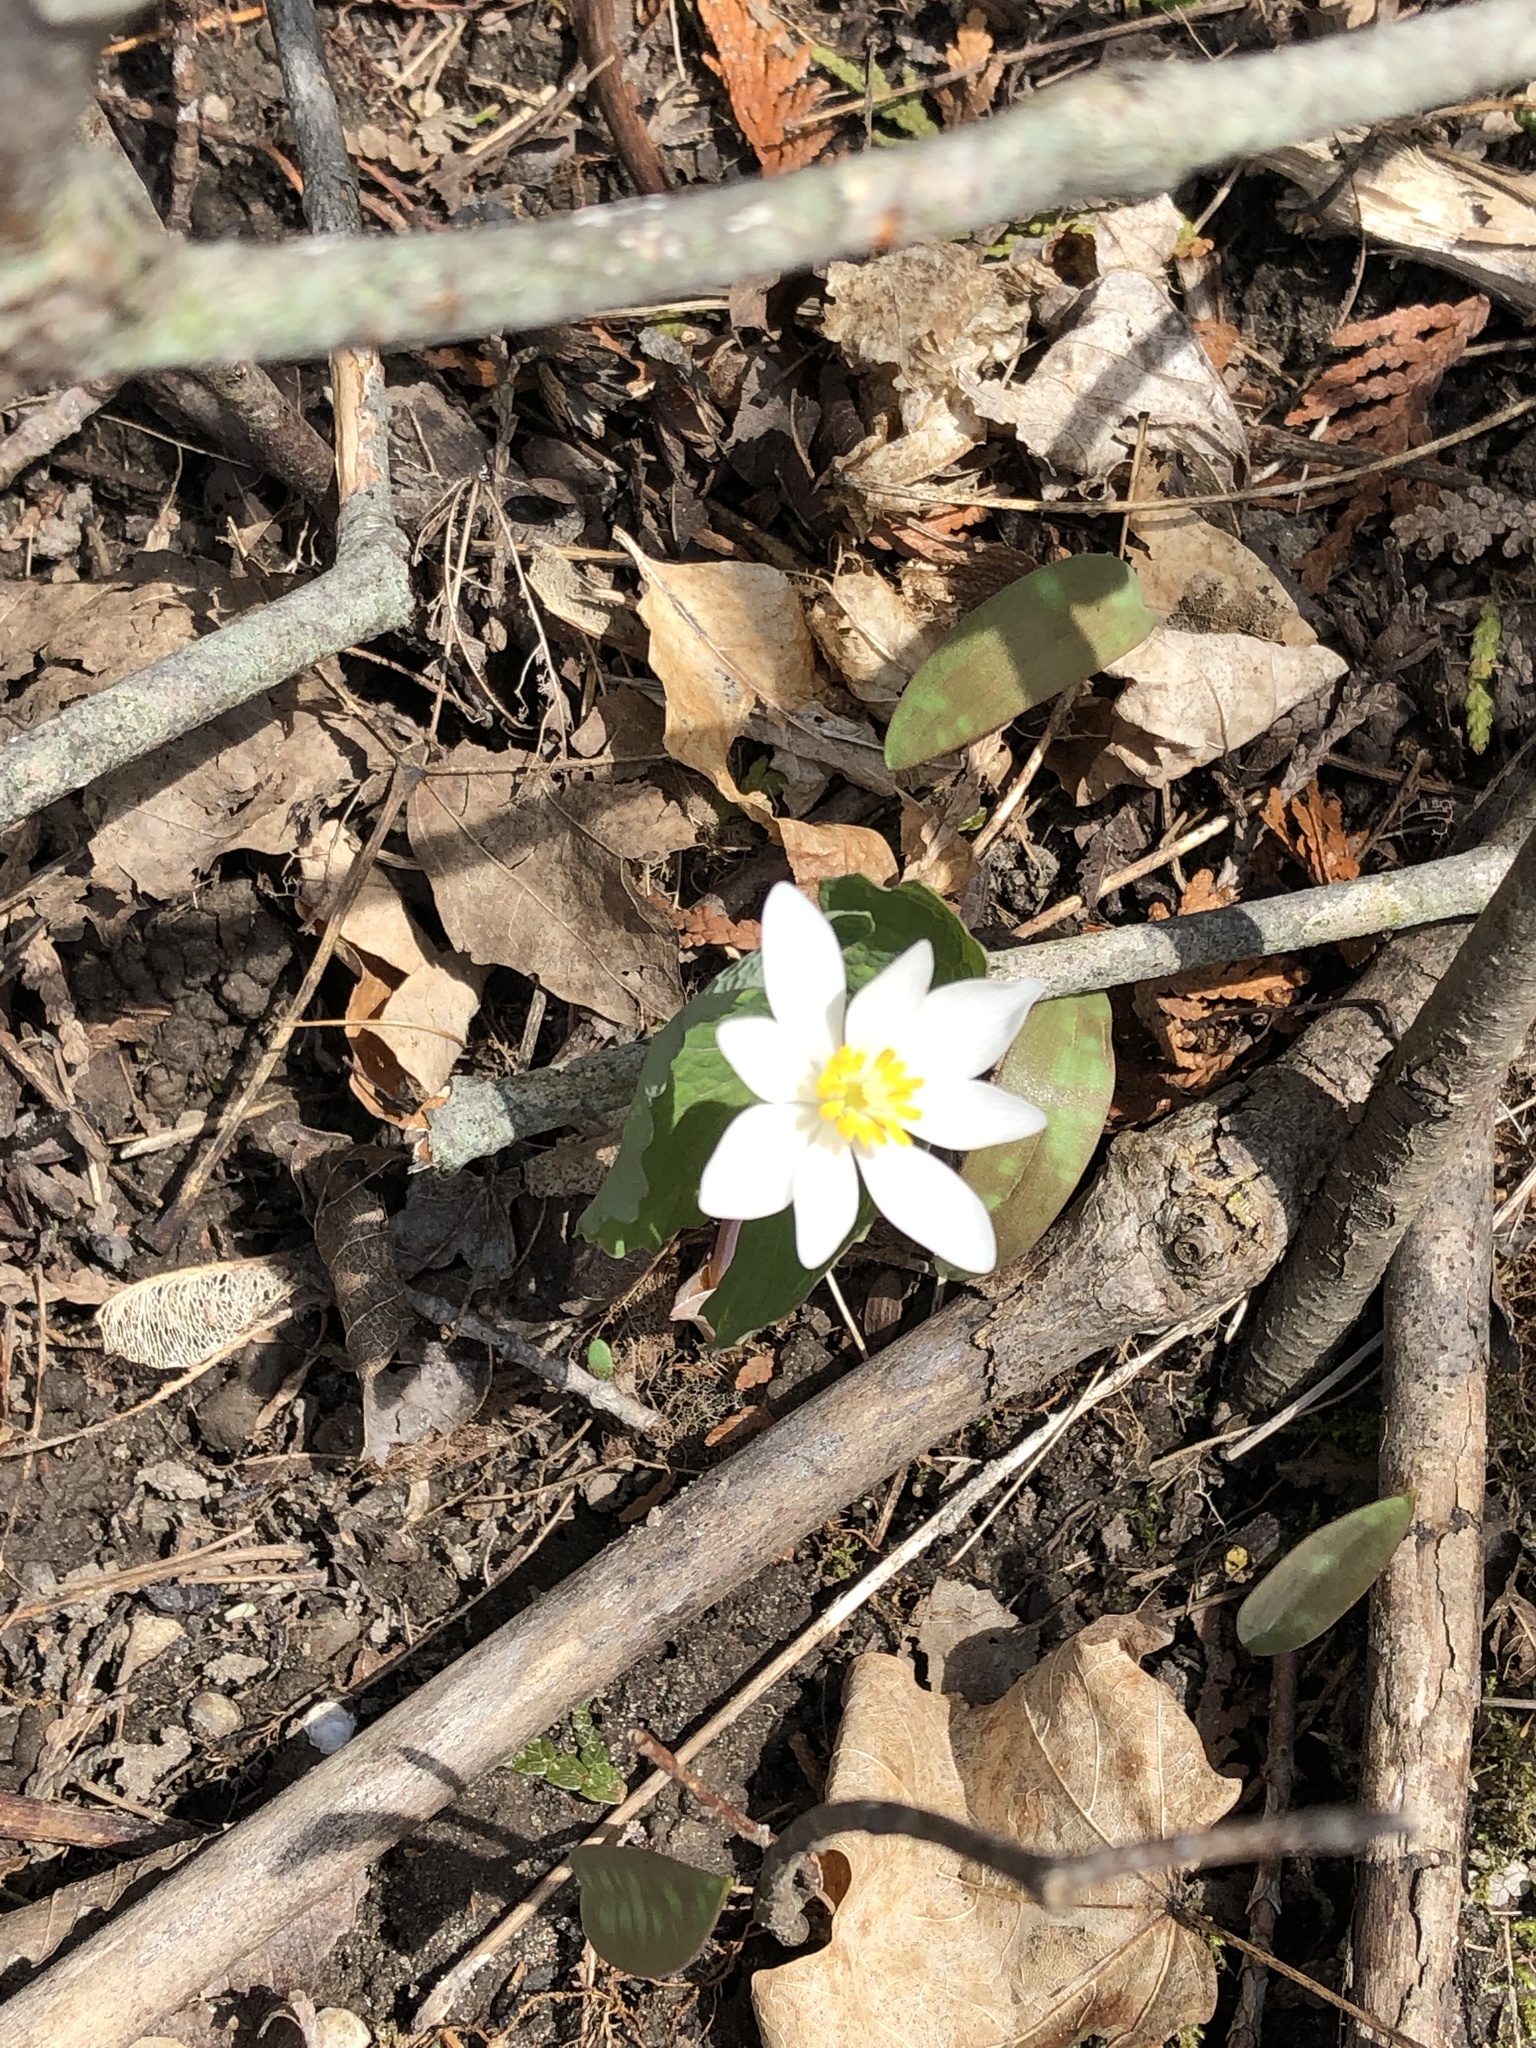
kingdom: Plantae
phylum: Tracheophyta
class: Magnoliopsida
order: Ranunculales
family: Papaveraceae
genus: Sanguinaria
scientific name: Sanguinaria canadensis
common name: Bloodroot
